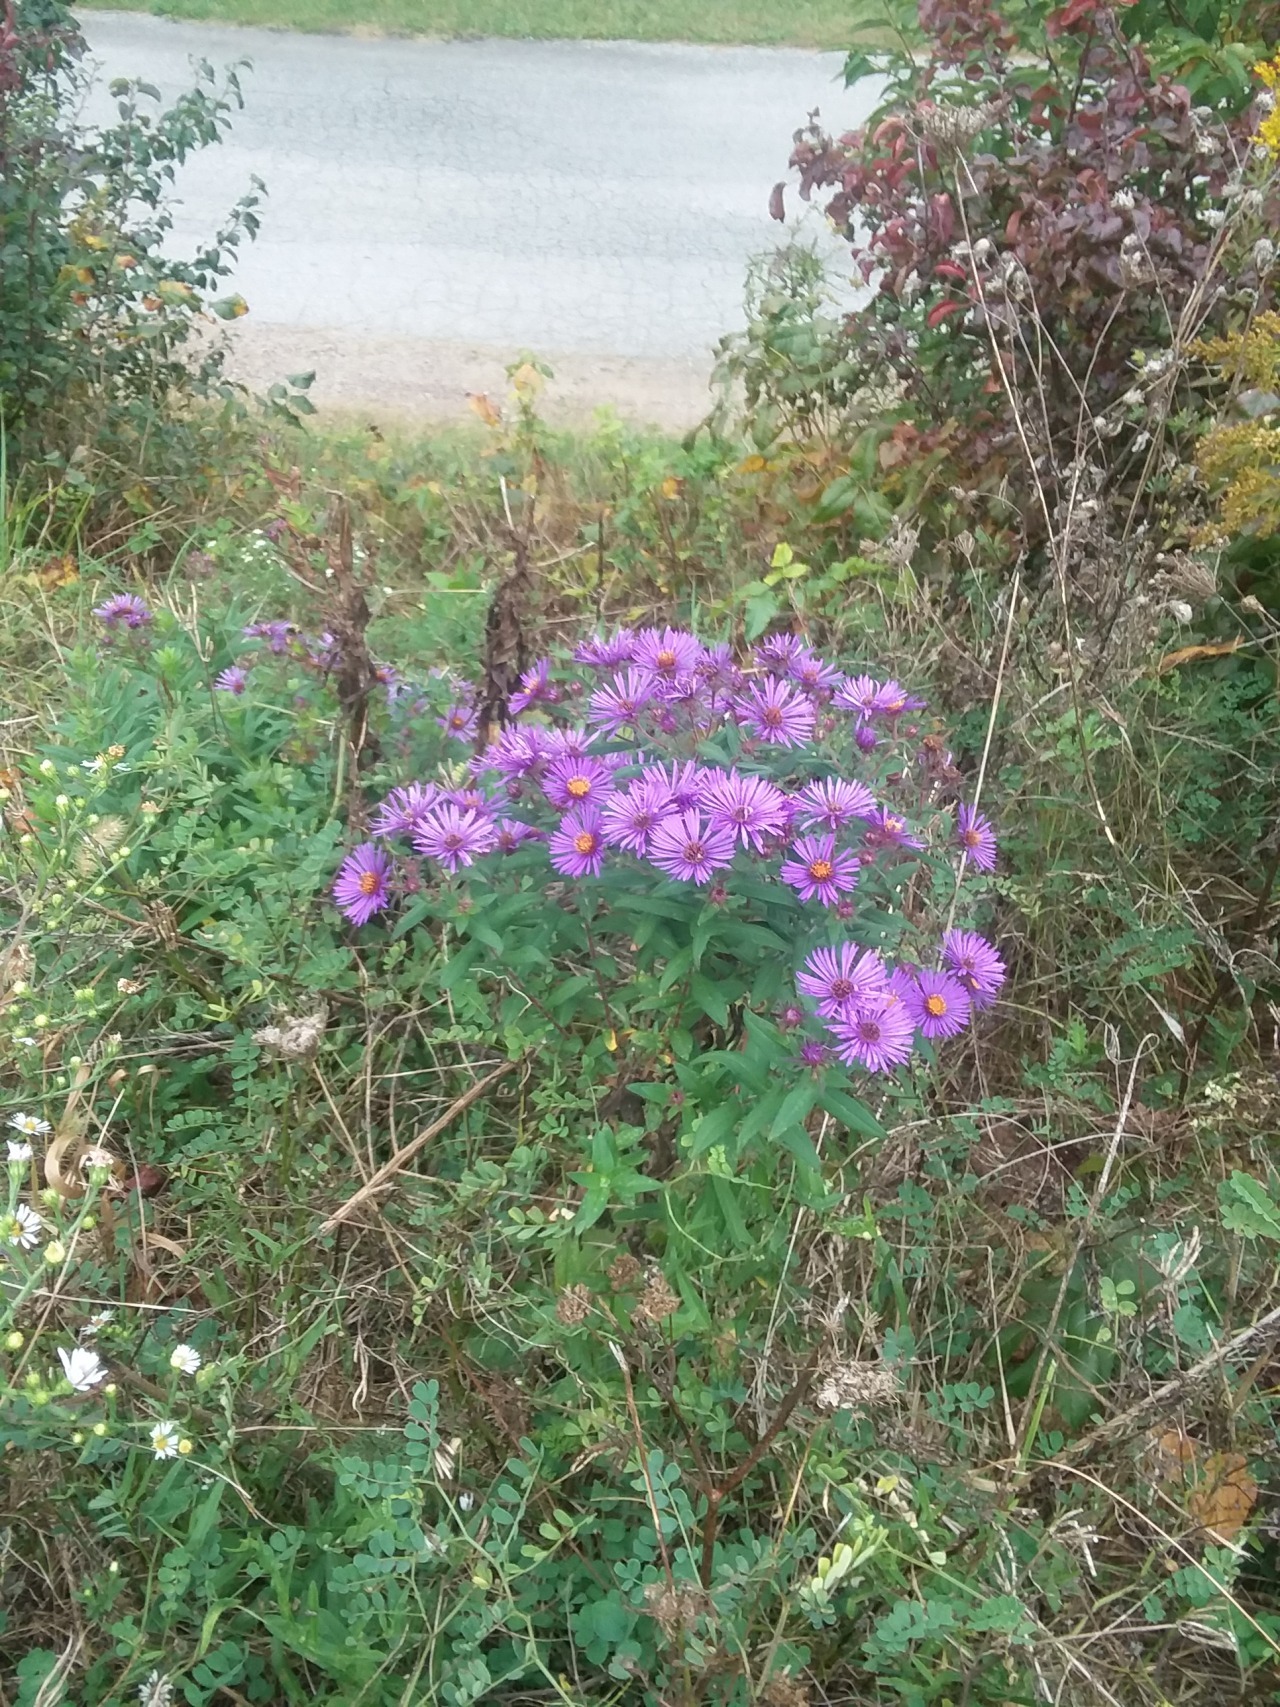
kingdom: Plantae
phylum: Tracheophyta
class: Magnoliopsida
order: Asterales
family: Asteraceae
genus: Symphyotrichum
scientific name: Symphyotrichum novae-angliae
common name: Michaelmas daisy
